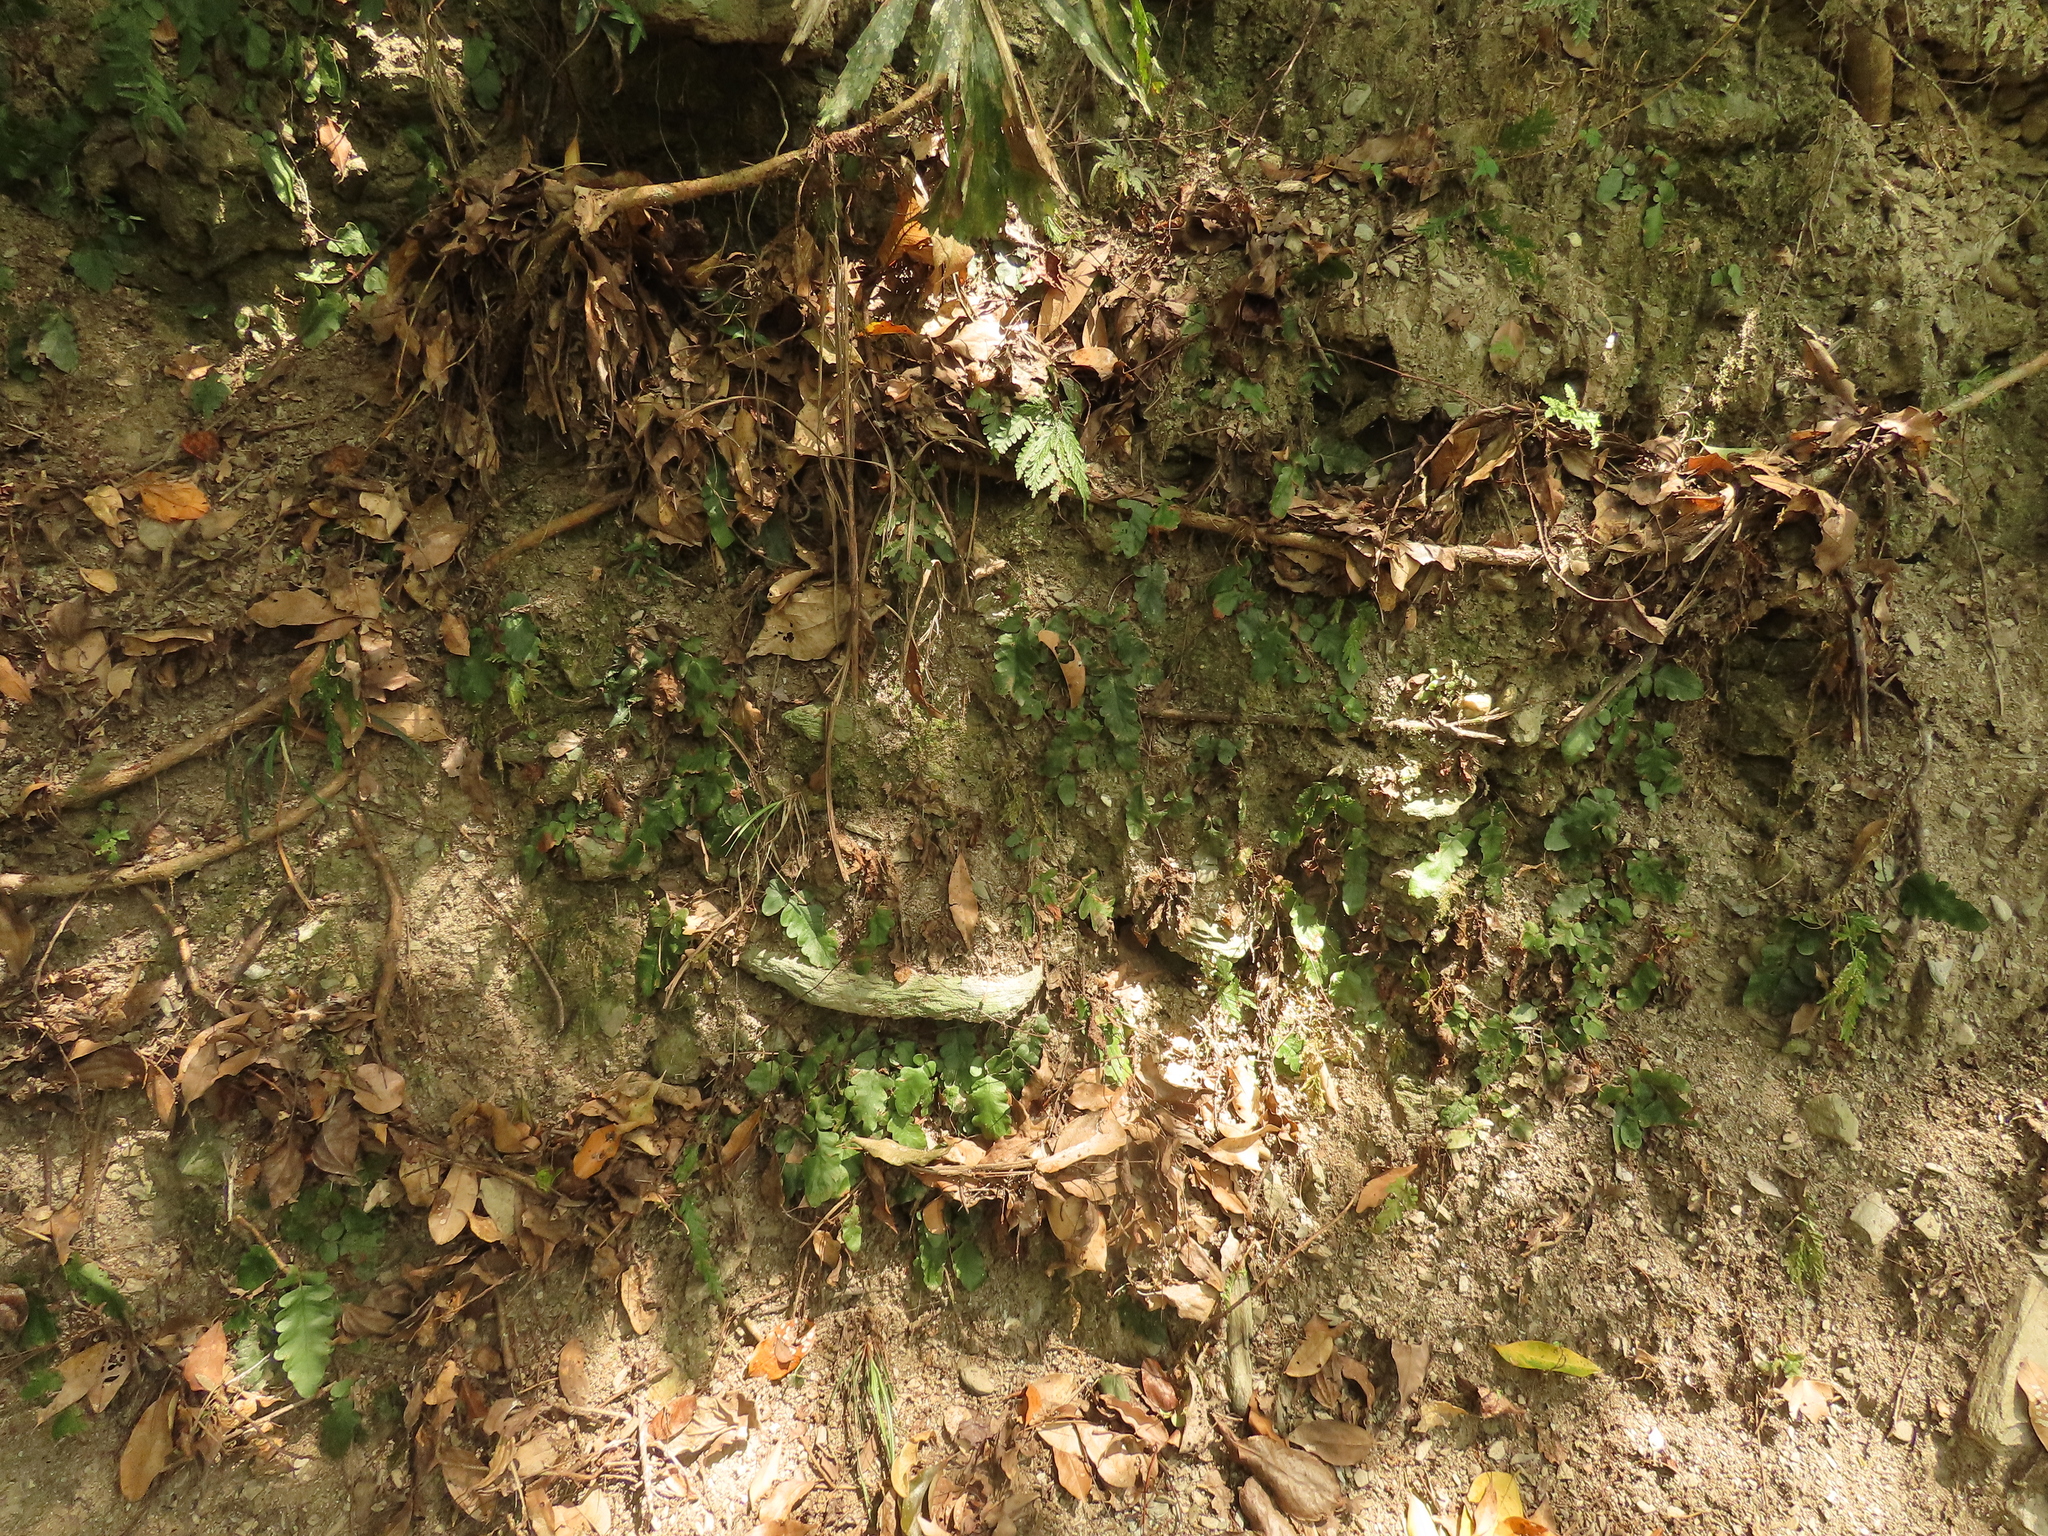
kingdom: Plantae
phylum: Tracheophyta
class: Polypodiopsida
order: Polypodiales
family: Tectariaceae
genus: Tectaria
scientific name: Tectaria zeilanica
